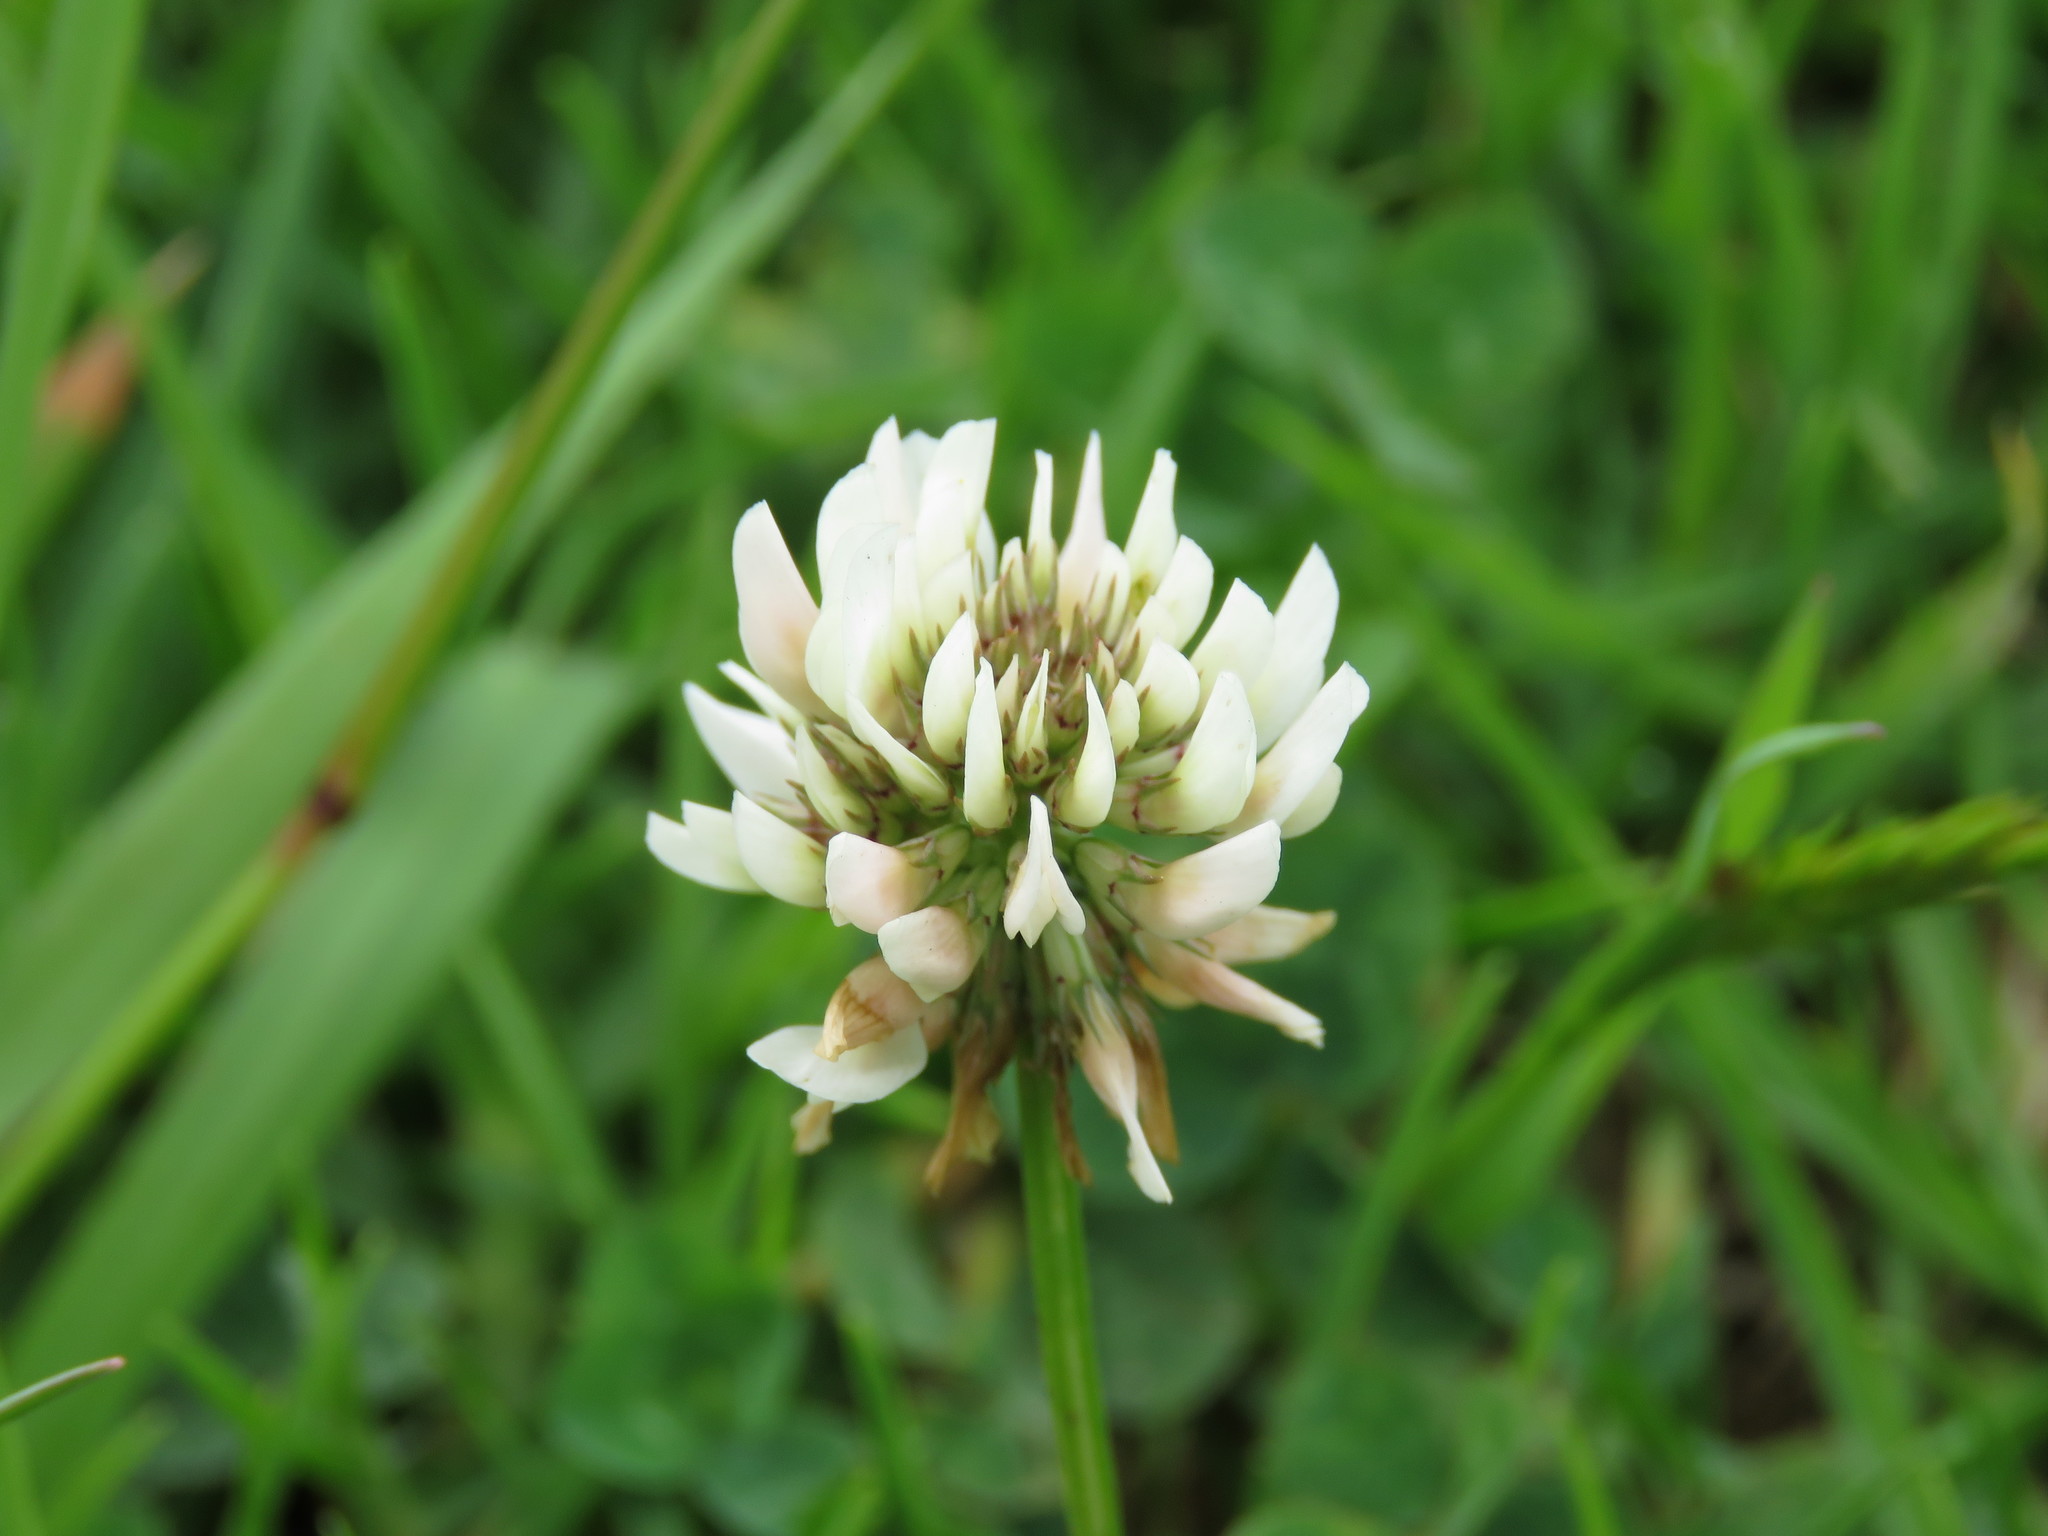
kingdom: Plantae
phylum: Tracheophyta
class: Magnoliopsida
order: Fabales
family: Fabaceae
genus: Trifolium
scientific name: Trifolium repens
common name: White clover
